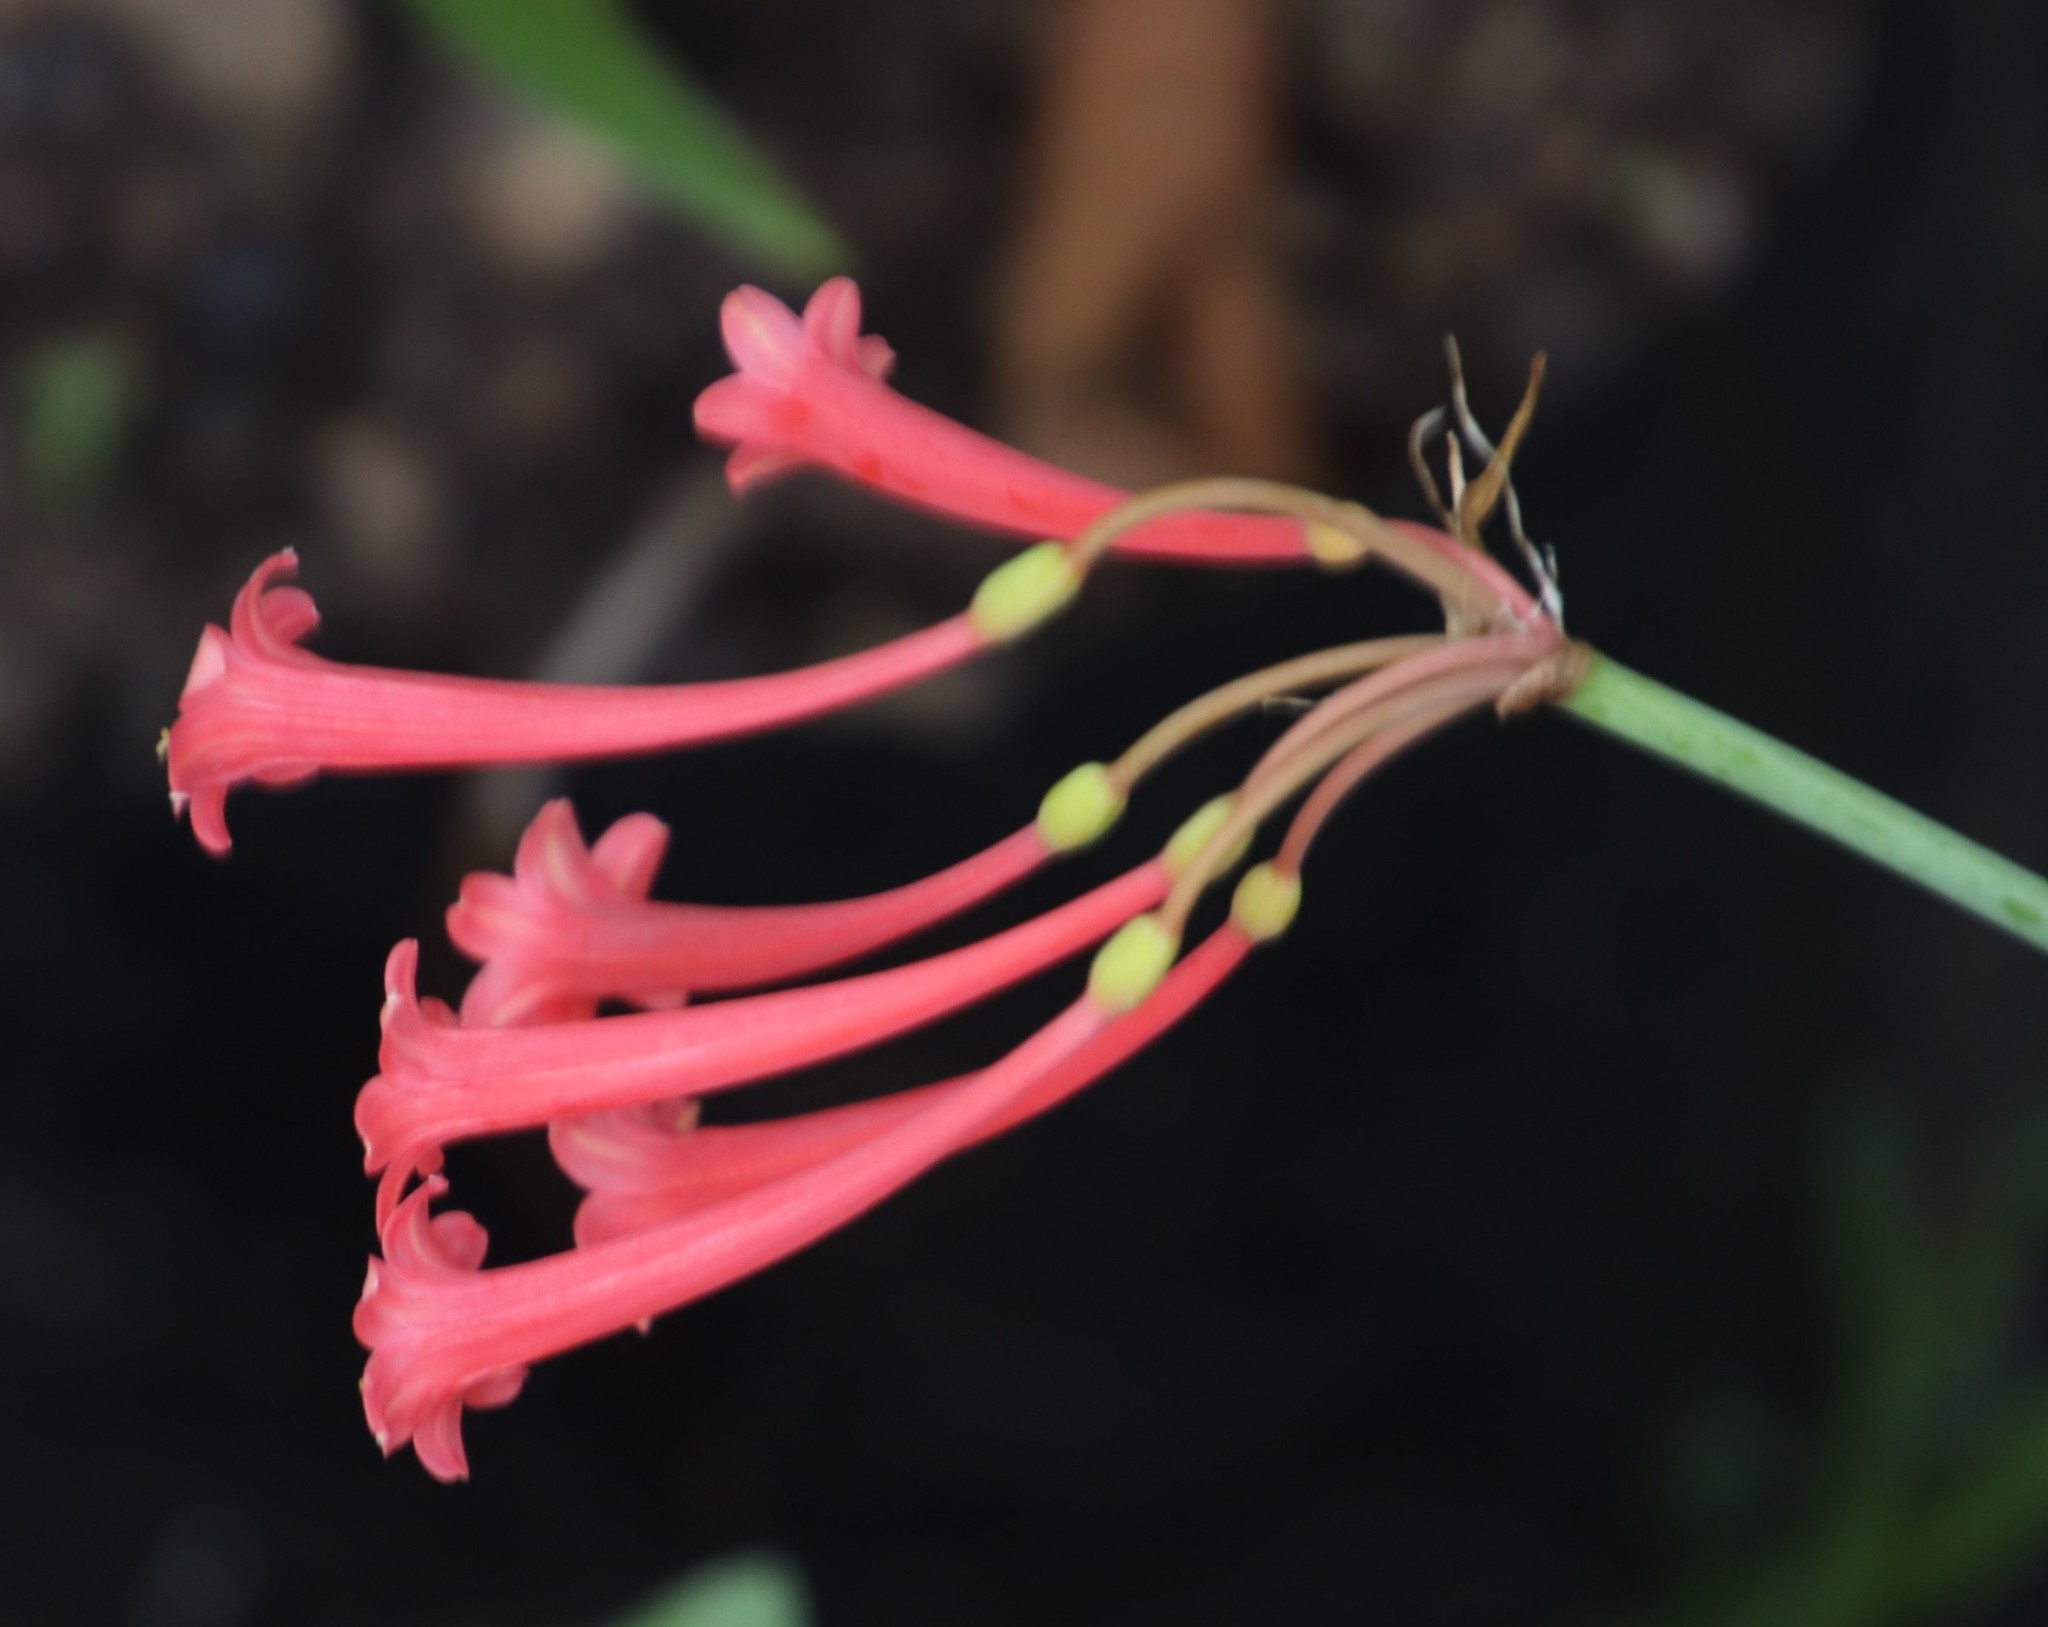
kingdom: Plantae
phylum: Tracheophyta
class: Liliopsida
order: Asparagales
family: Amaryllidaceae
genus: Cyrtanthus
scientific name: Cyrtanthus mackenii
